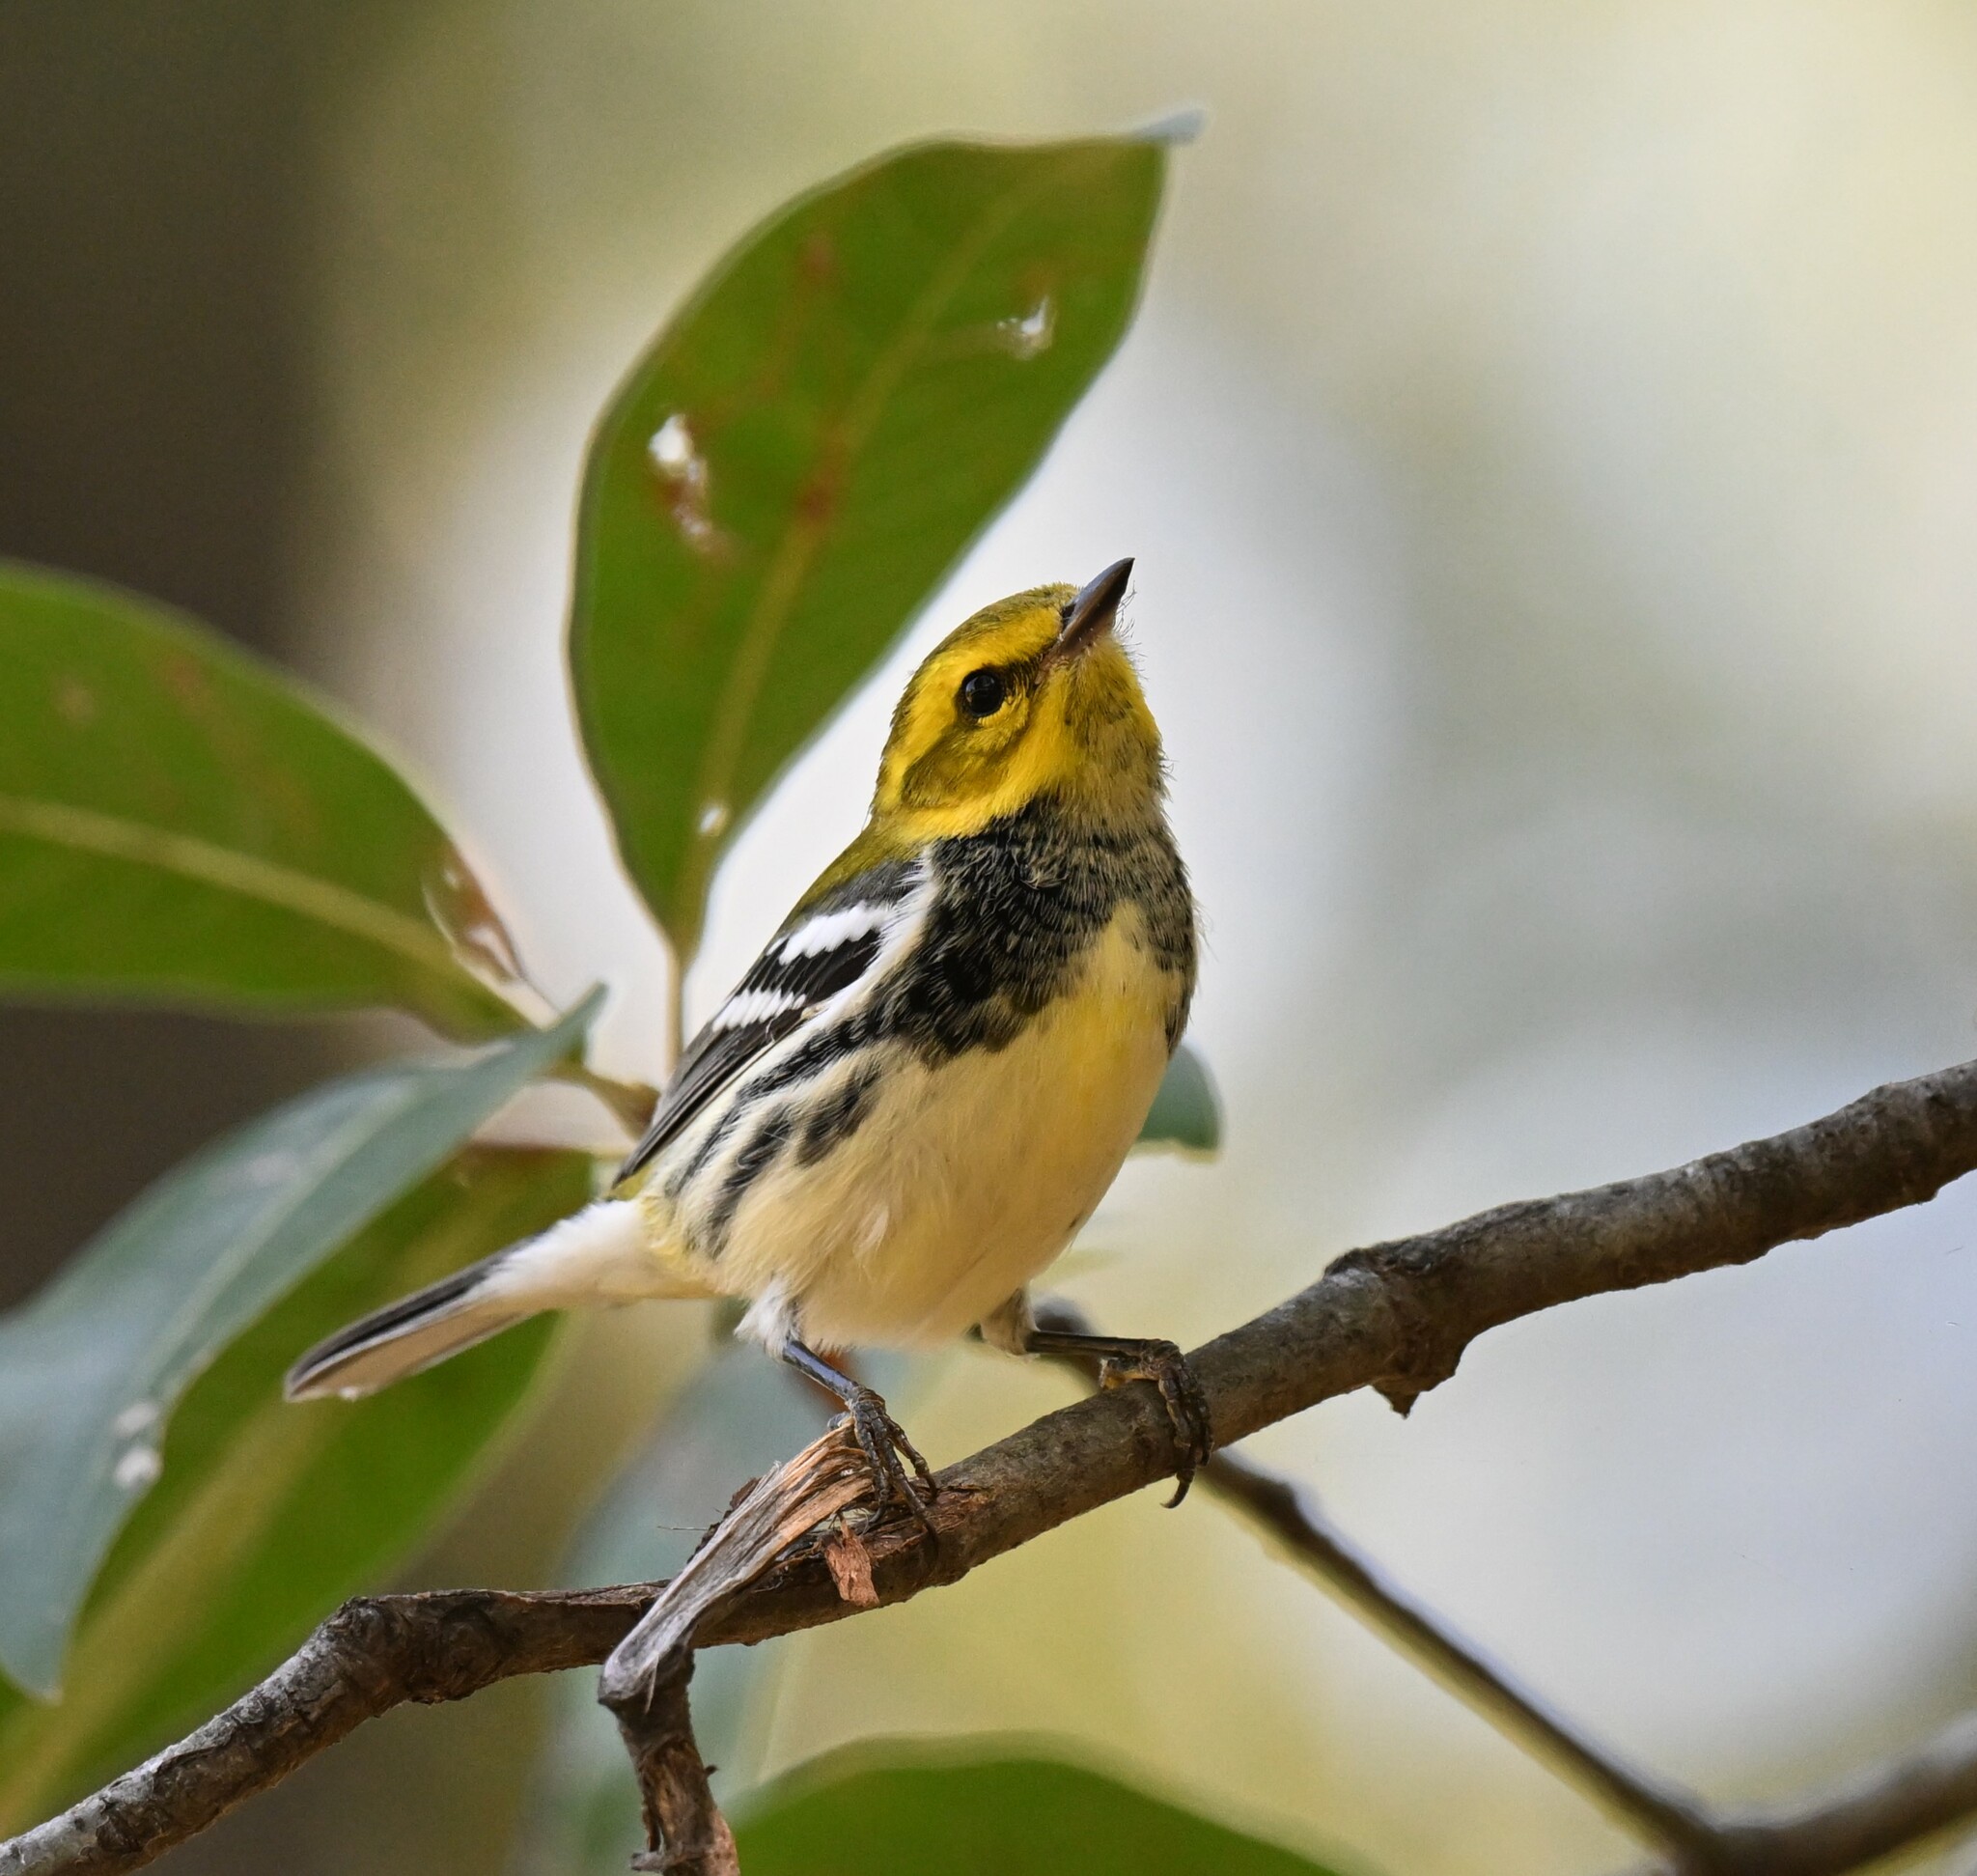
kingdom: Animalia
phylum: Chordata
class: Aves
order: Passeriformes
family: Parulidae
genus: Setophaga
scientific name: Setophaga virens
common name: Black-throated green warbler
